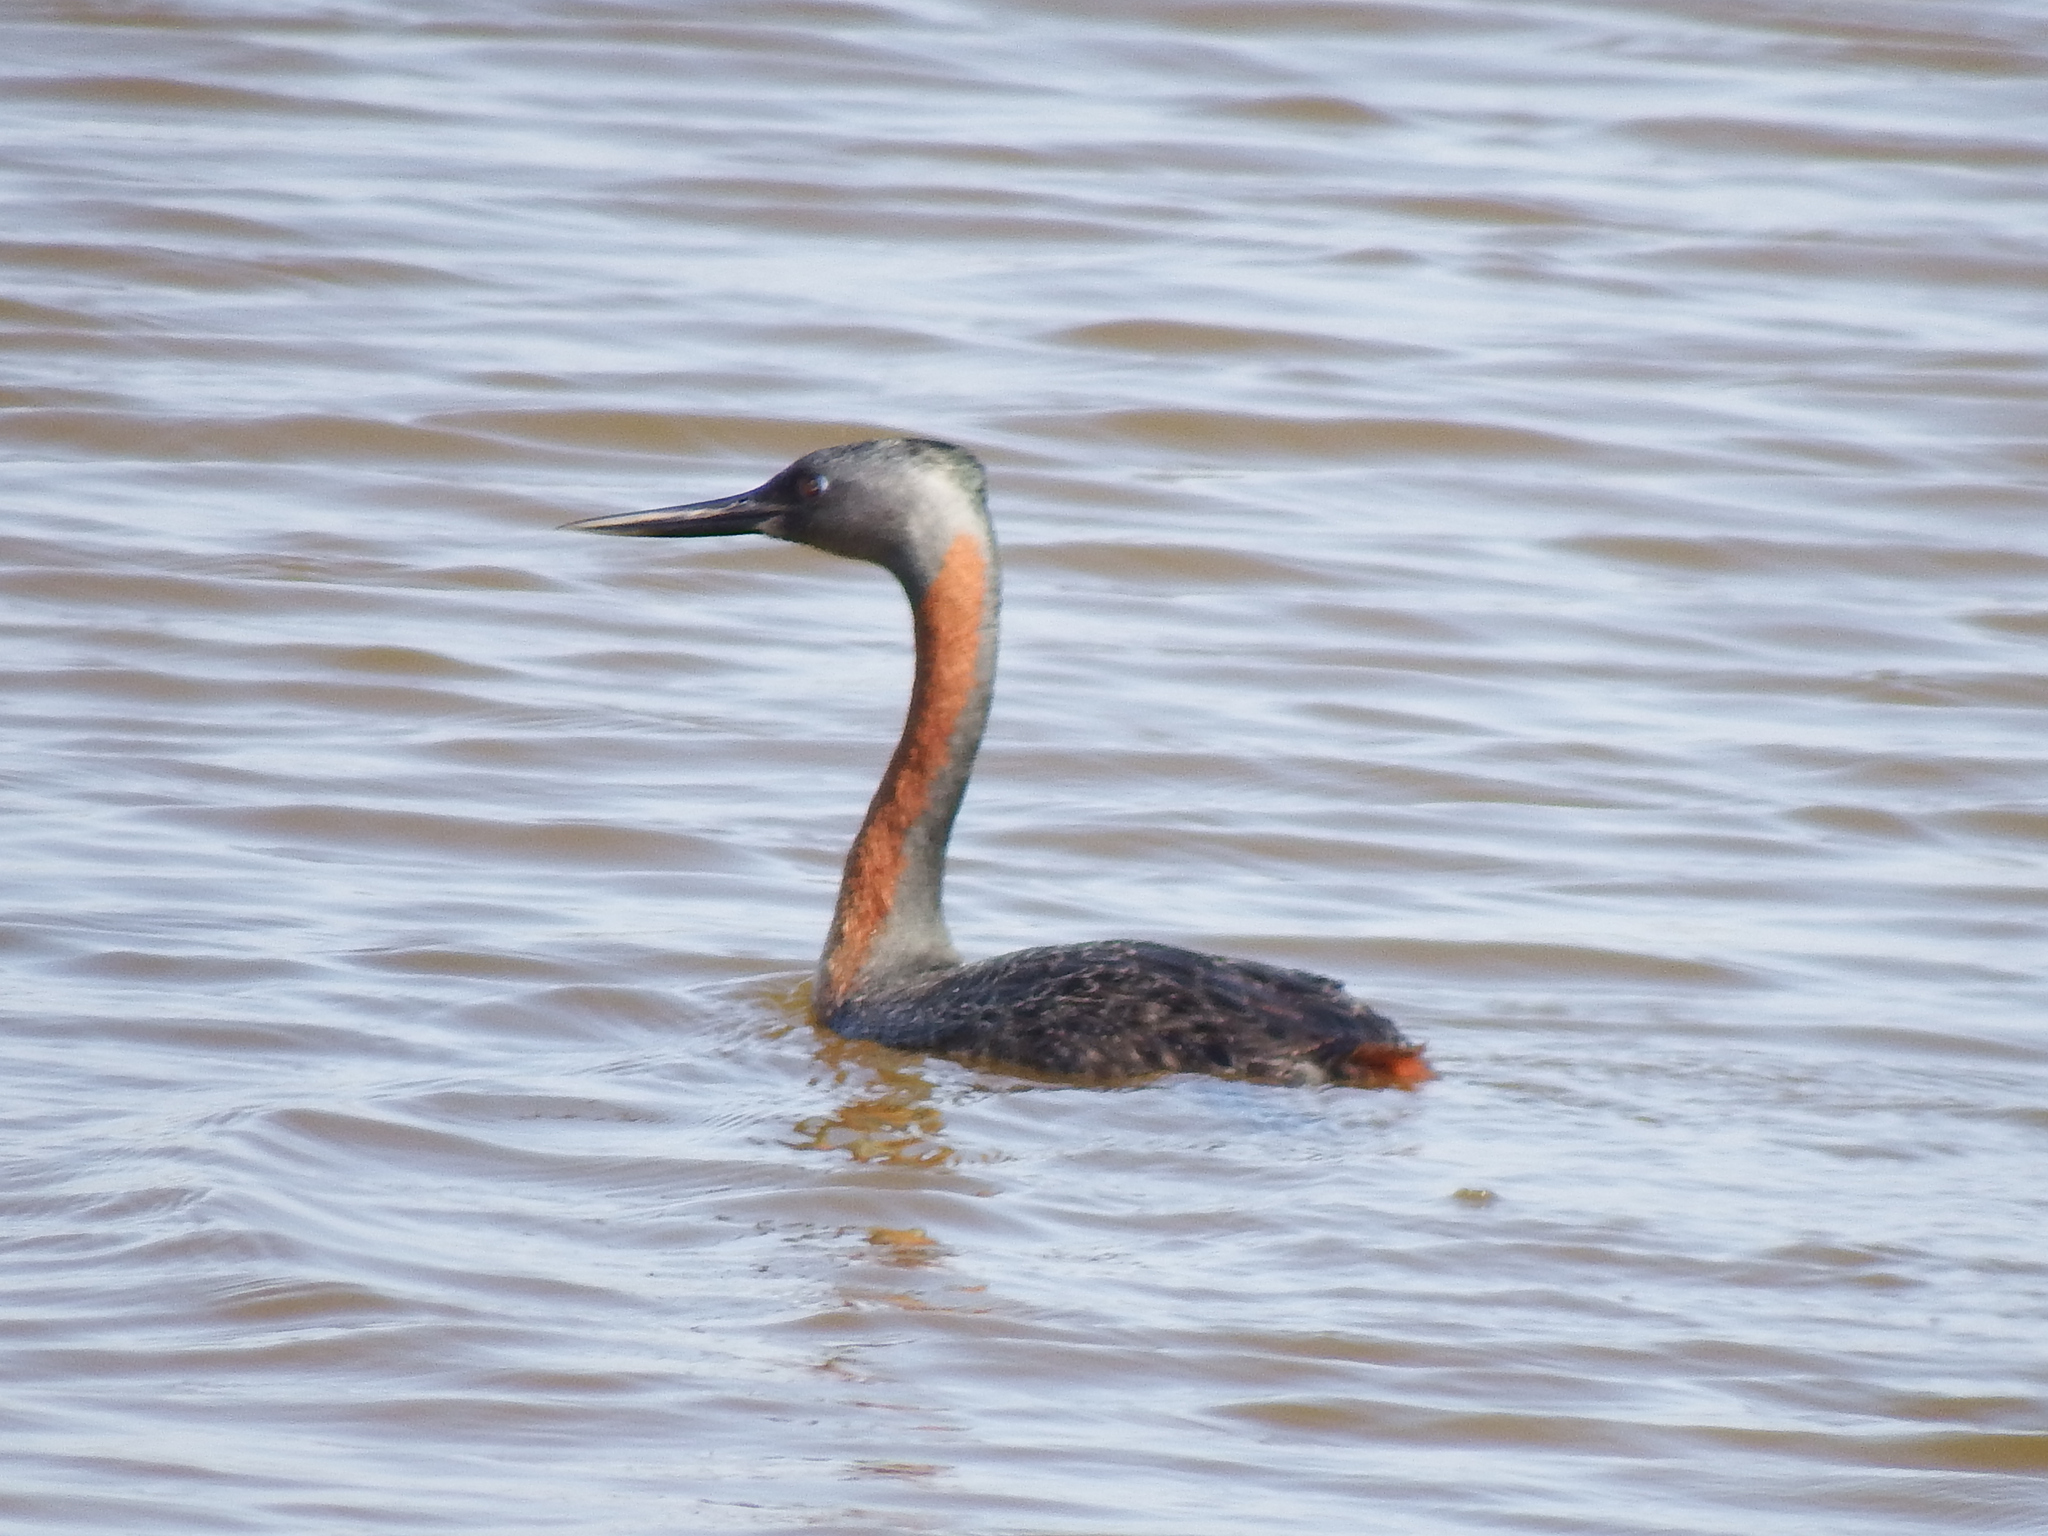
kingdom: Animalia
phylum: Chordata
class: Aves
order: Podicipediformes
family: Podicipedidae
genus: Podiceps
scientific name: Podiceps major
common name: Great grebe
